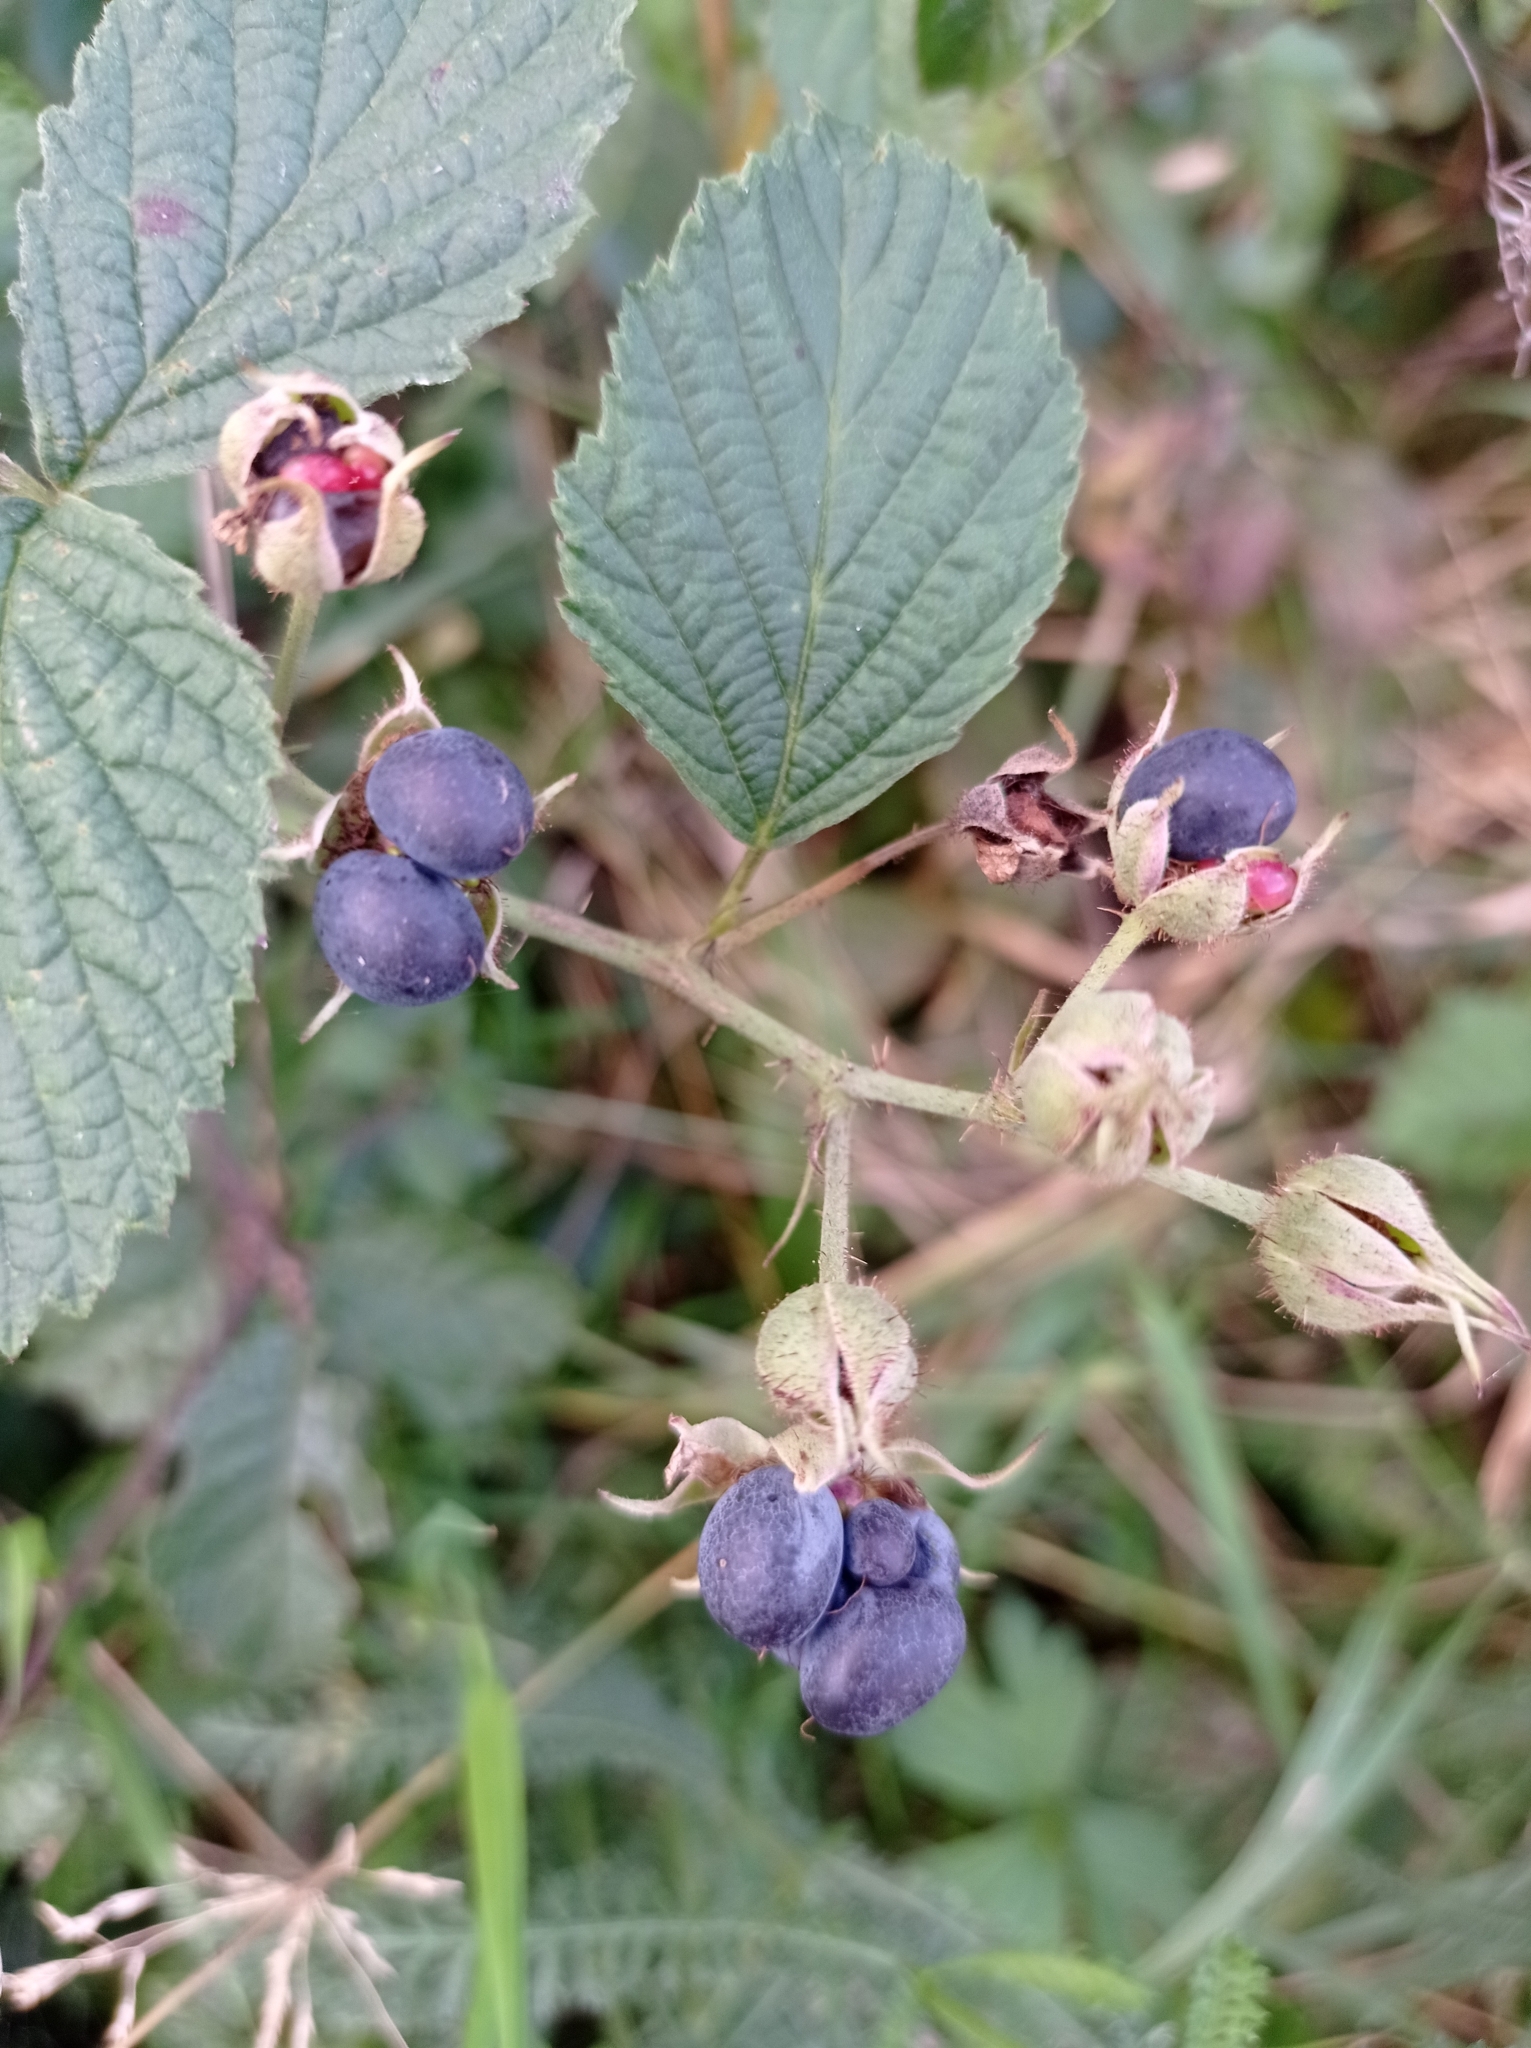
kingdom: Plantae
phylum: Tracheophyta
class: Magnoliopsida
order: Rosales
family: Rosaceae
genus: Rubus
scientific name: Rubus caesius
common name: Dewberry
